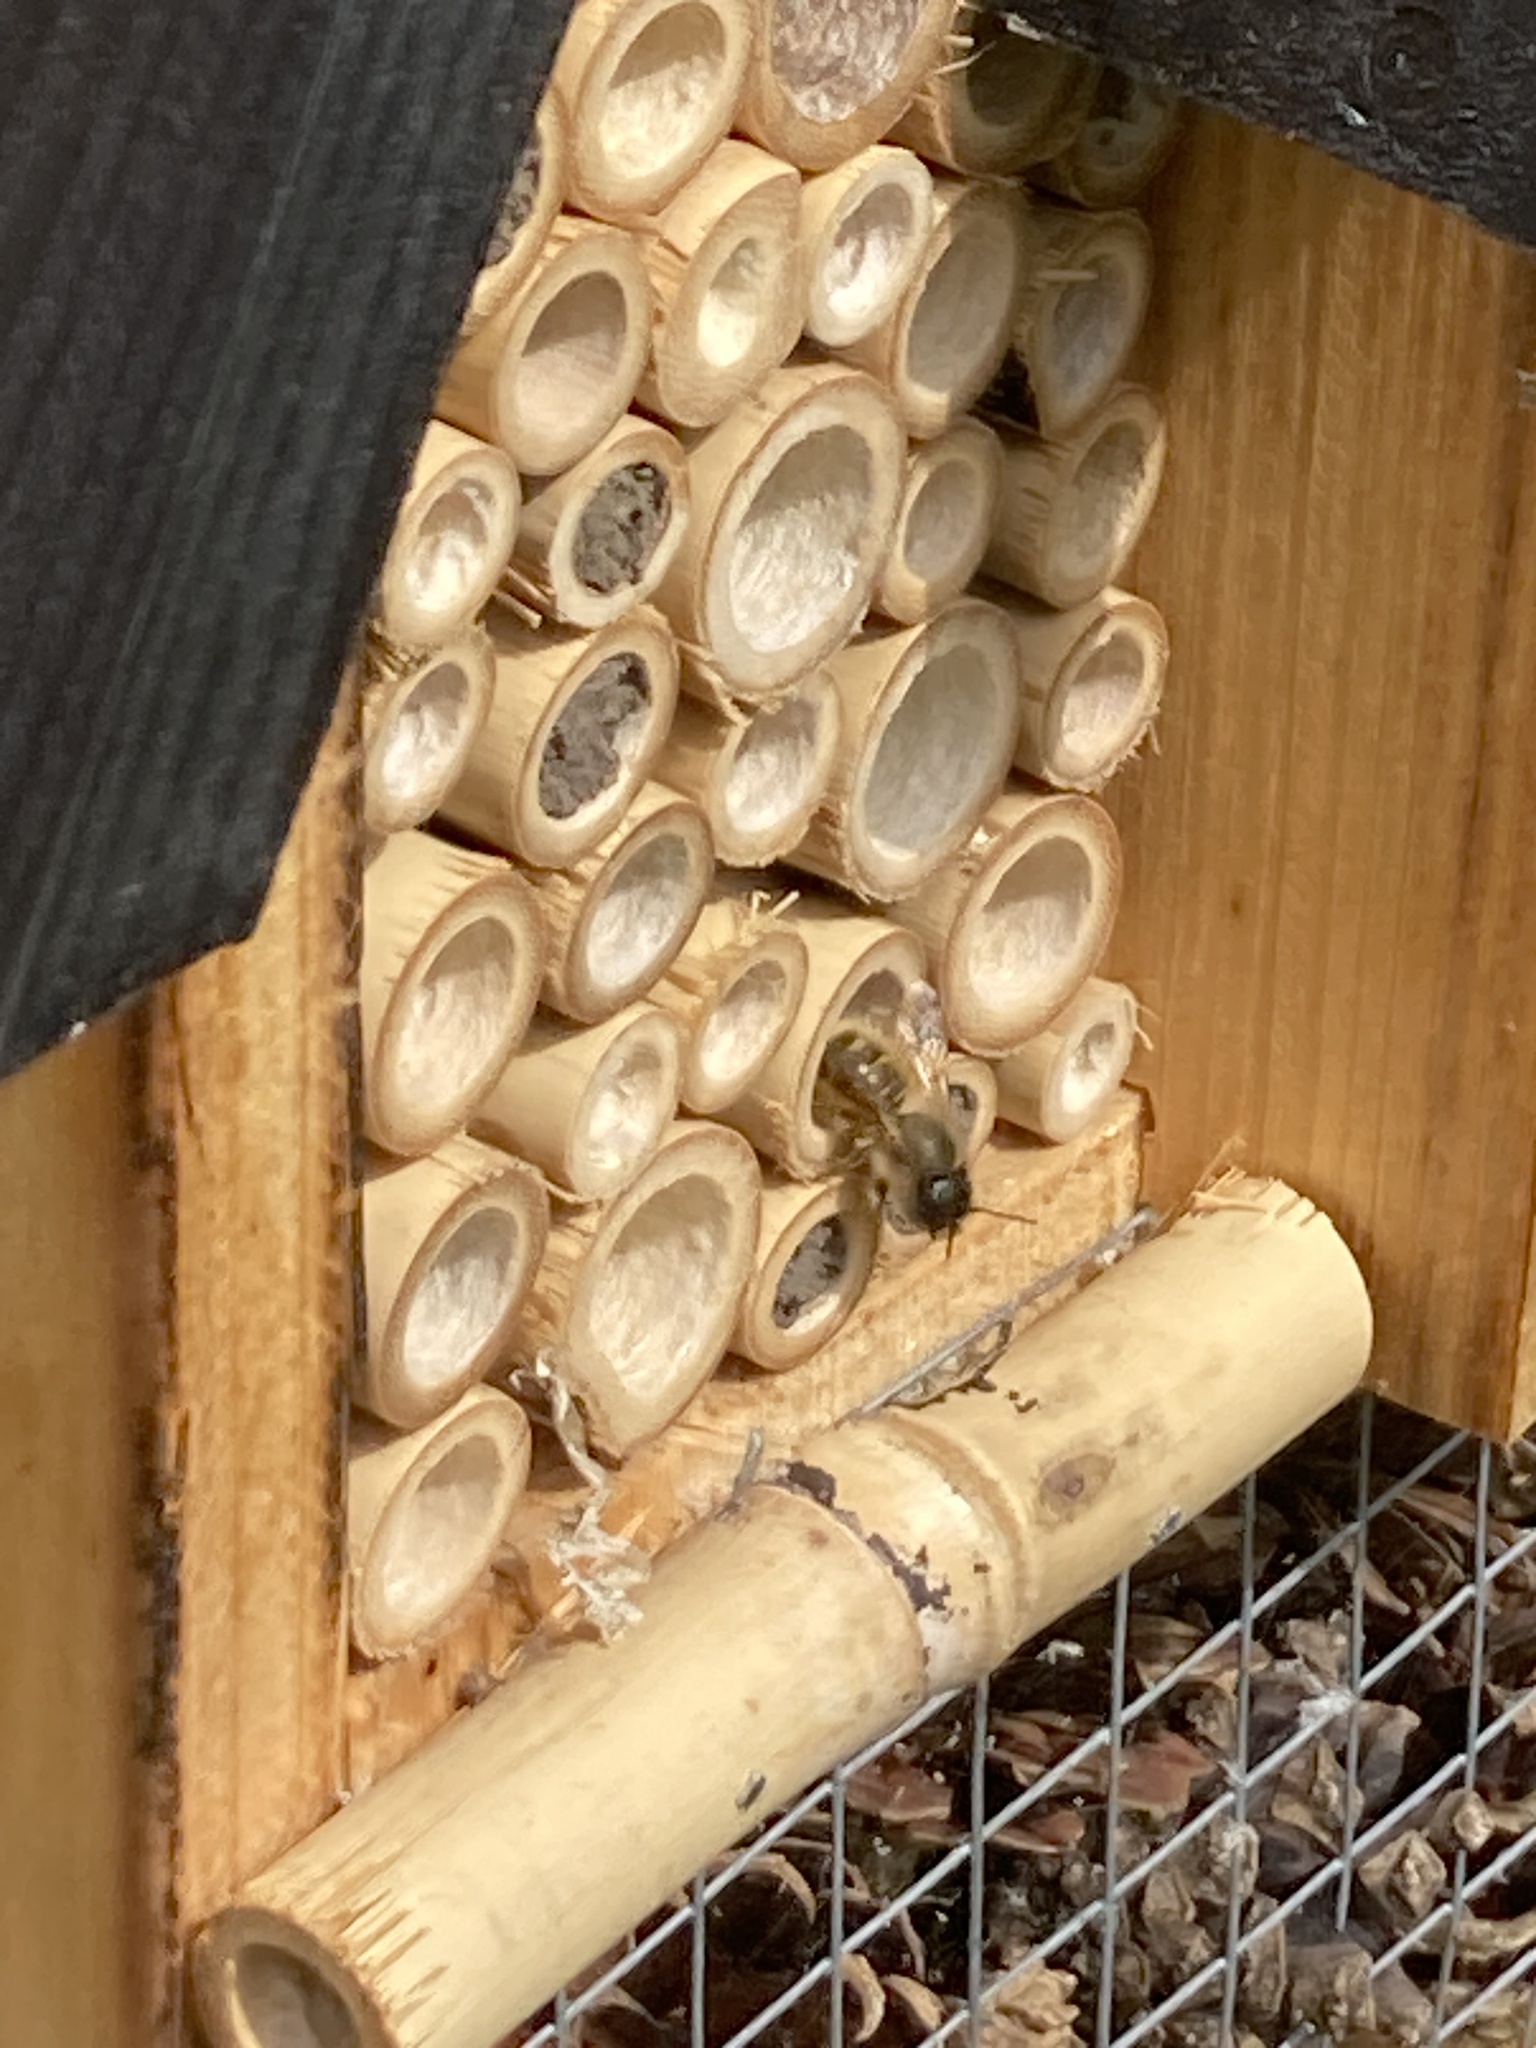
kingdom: Animalia
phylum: Arthropoda
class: Insecta
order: Hymenoptera
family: Megachilidae
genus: Osmia
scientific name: Osmia bicornis
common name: Red mason bee
